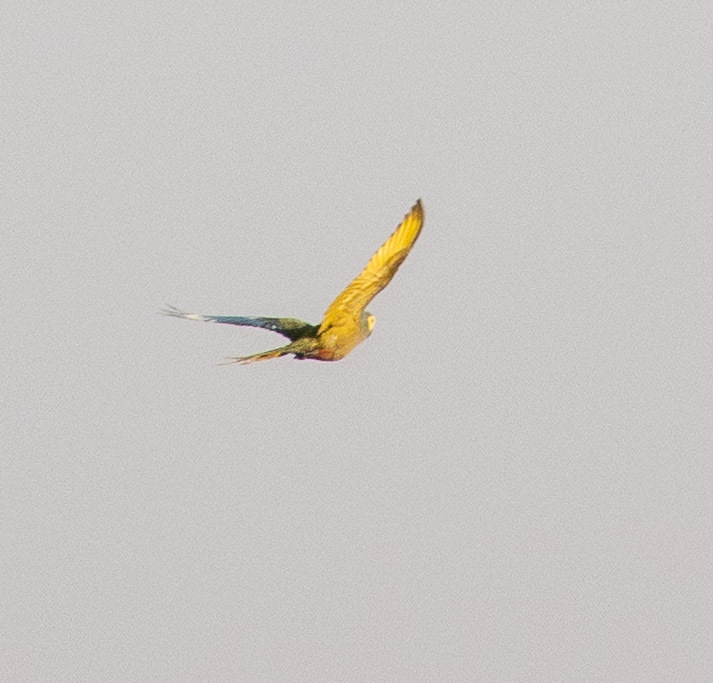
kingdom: Animalia
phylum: Chordata
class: Aves
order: Psittaciformes
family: Psittacidae
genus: Orthopsittaca
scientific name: Orthopsittaca manilata
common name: Red-bellied macaw
